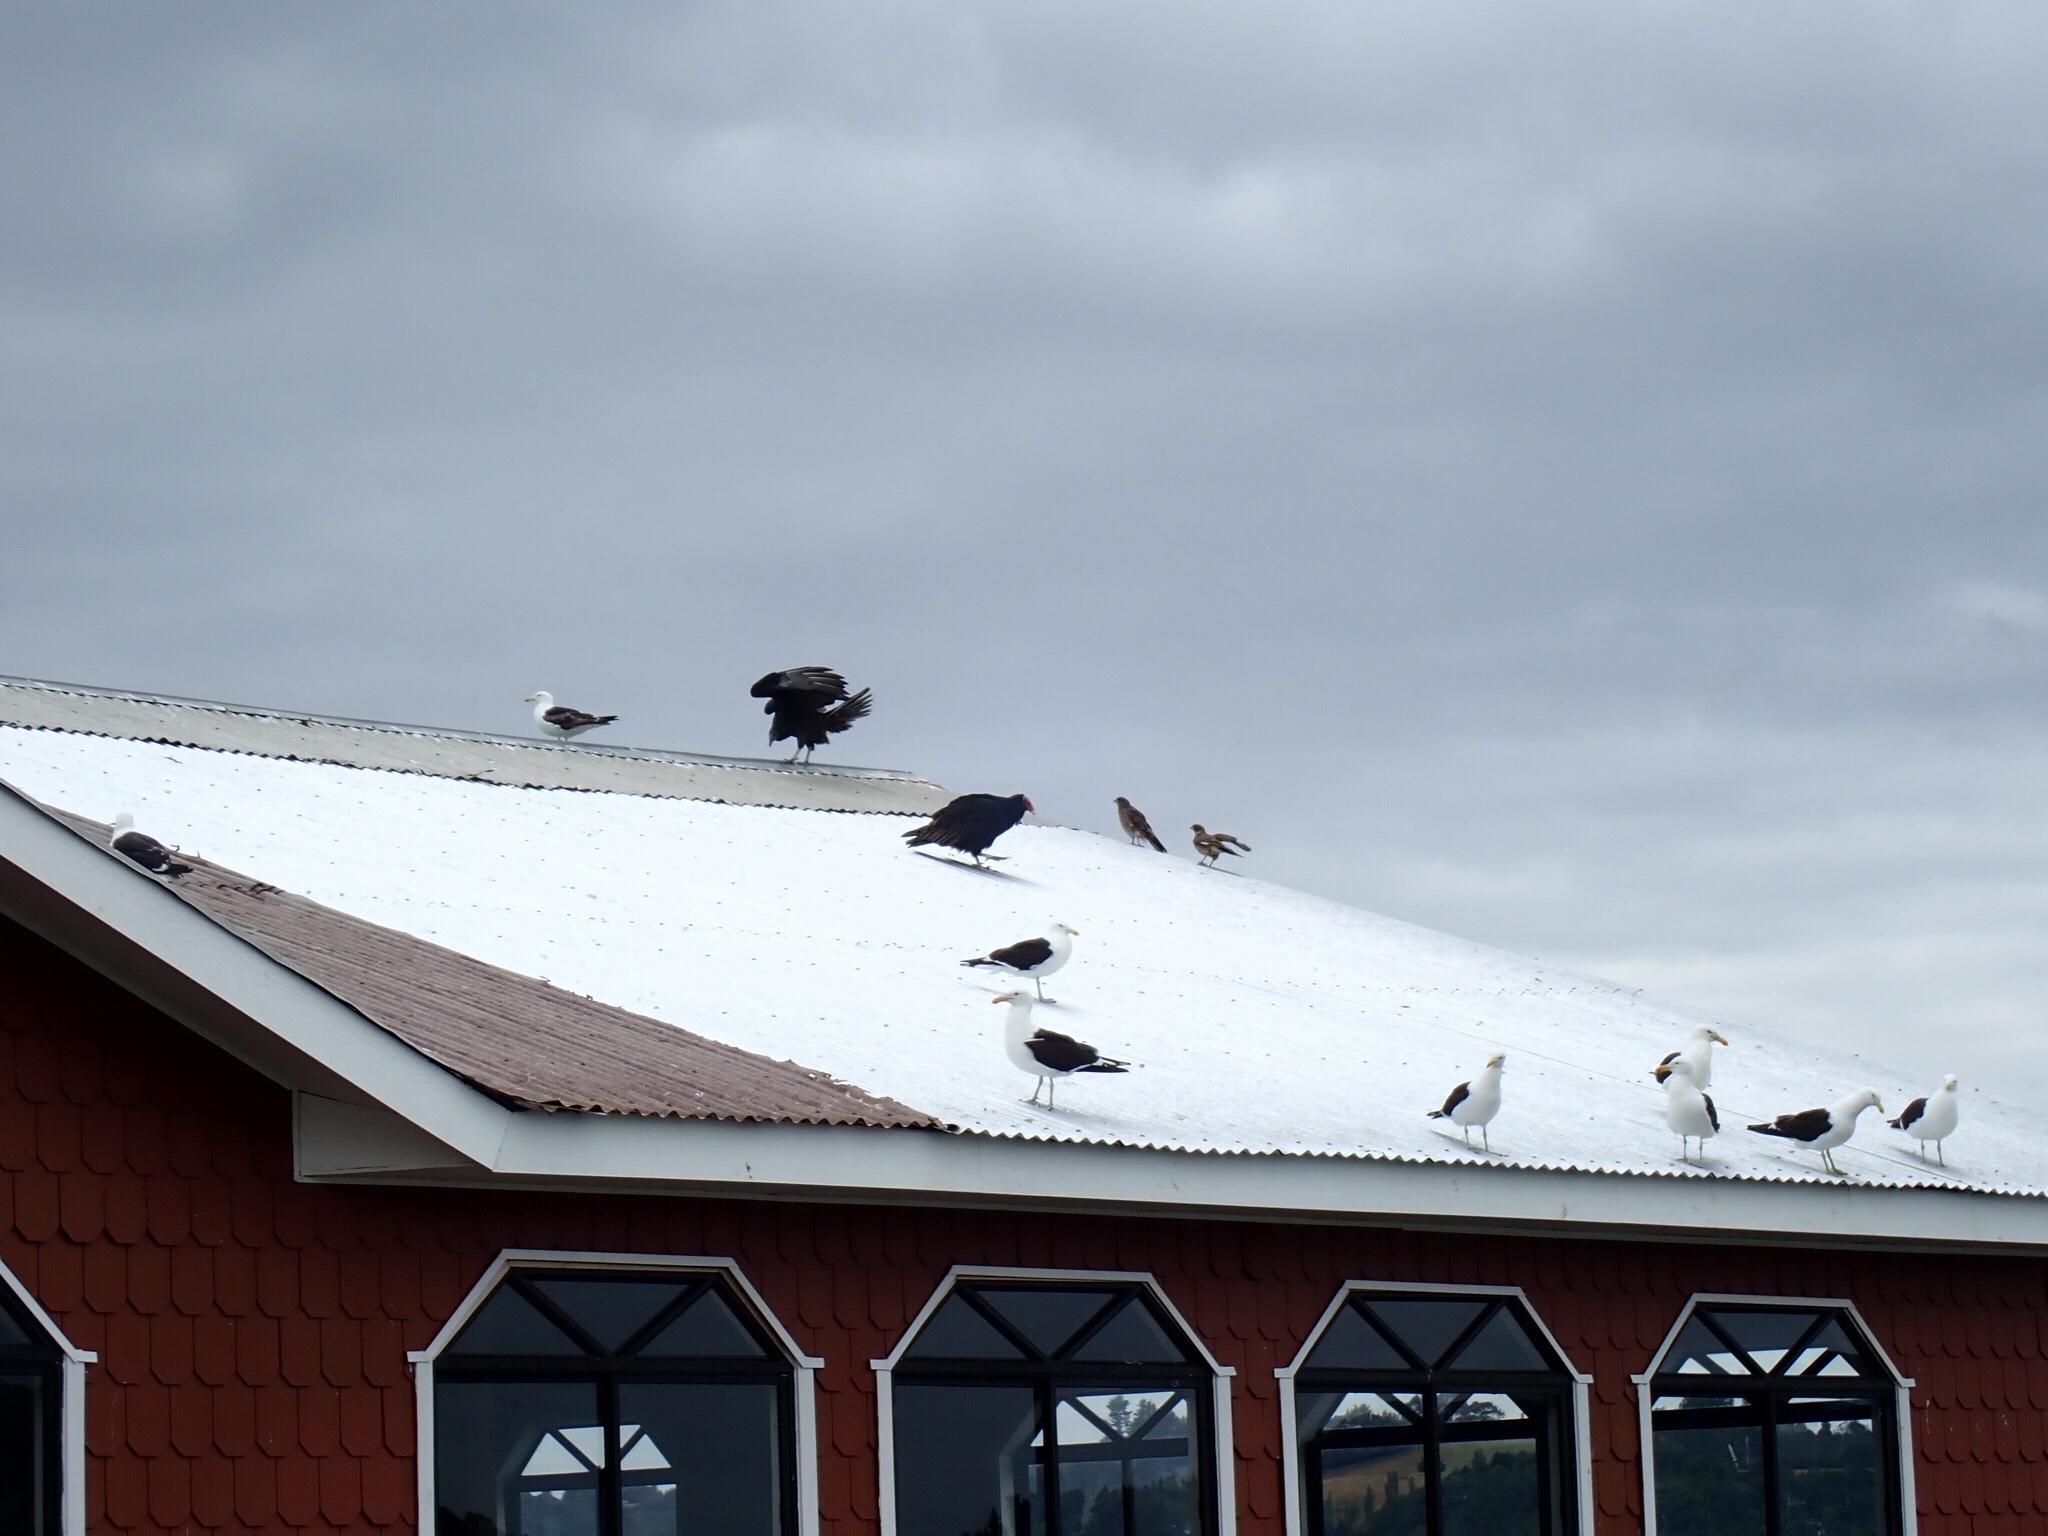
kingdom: Animalia
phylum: Chordata
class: Aves
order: Accipitriformes
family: Cathartidae
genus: Cathartes
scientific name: Cathartes aura
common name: Turkey vulture
